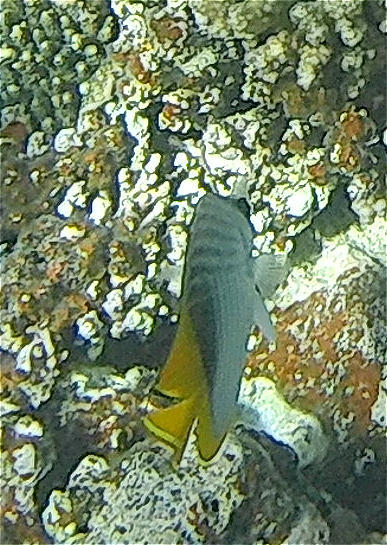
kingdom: Animalia
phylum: Chordata
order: Perciformes
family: Chaetodontidae
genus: Chaetodon
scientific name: Chaetodon auriga
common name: Threadfin butterflyfish
